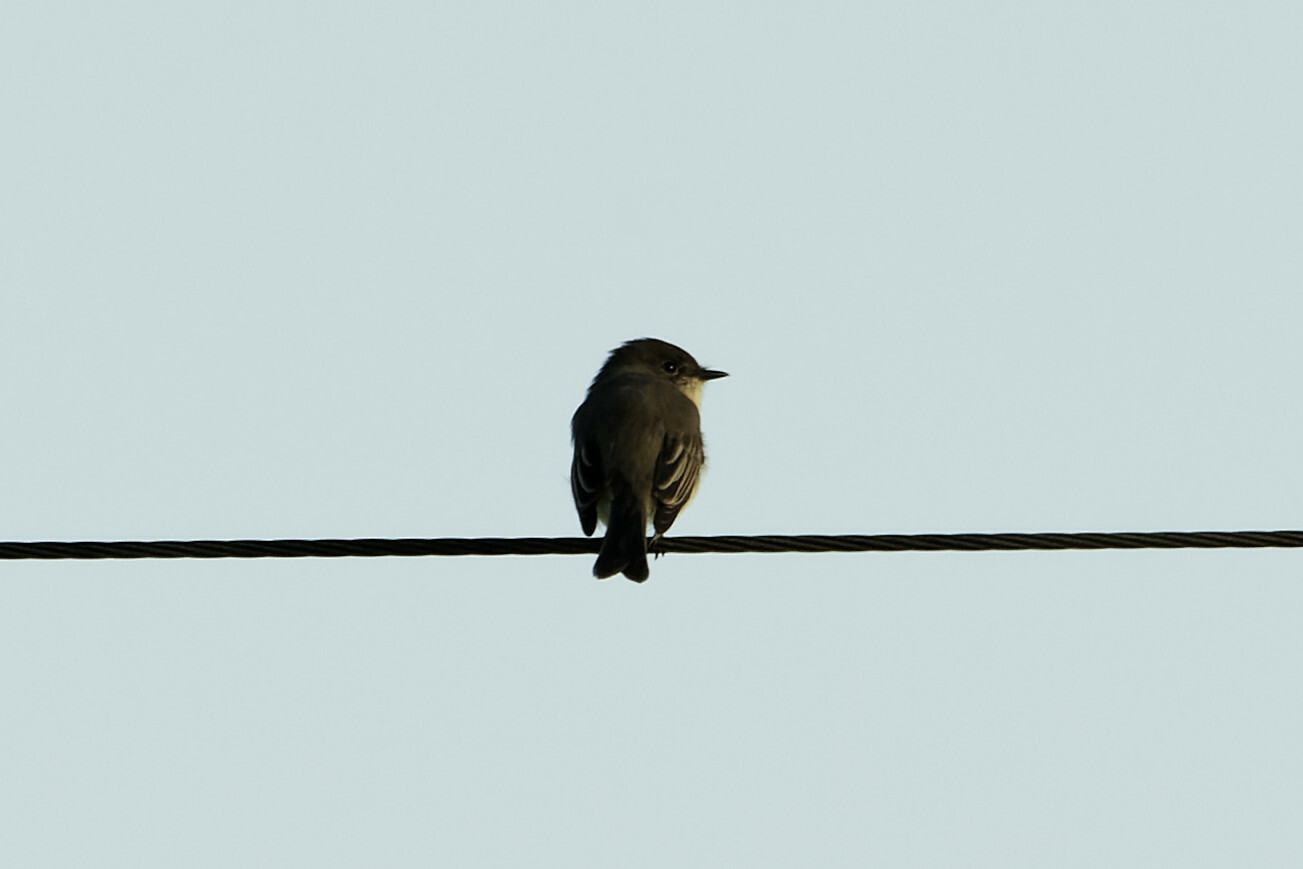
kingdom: Animalia
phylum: Chordata
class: Aves
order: Passeriformes
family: Tyrannidae
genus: Sayornis
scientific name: Sayornis phoebe
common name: Eastern phoebe
